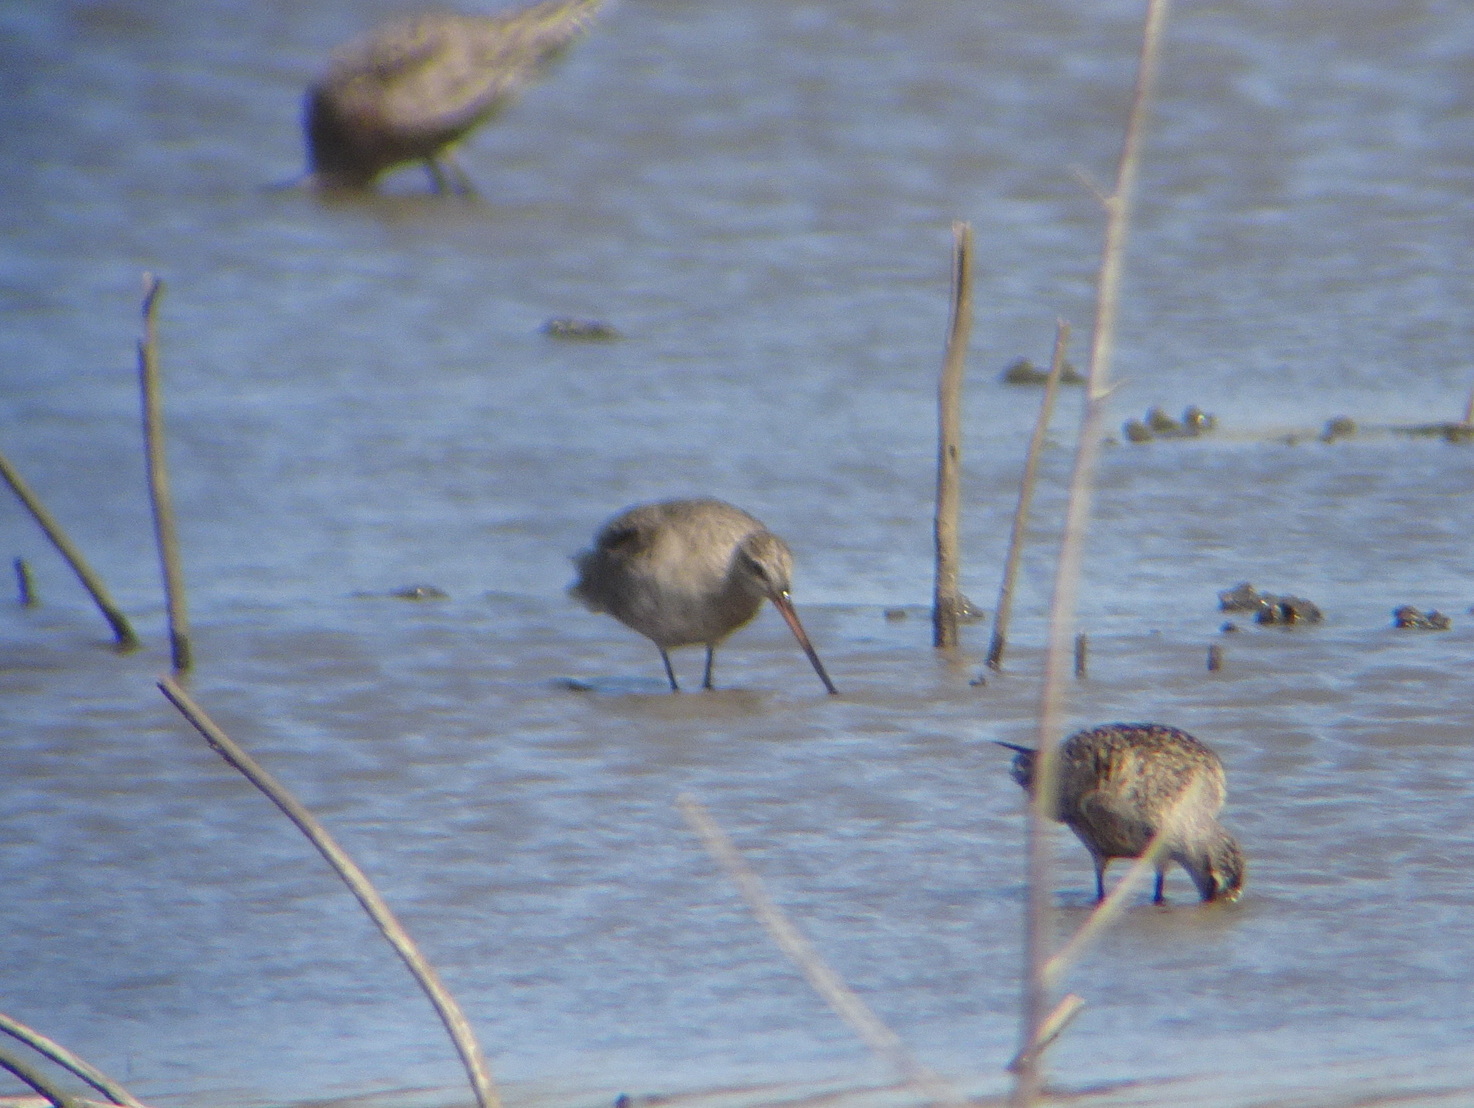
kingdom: Animalia
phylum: Chordata
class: Aves
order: Charadriiformes
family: Scolopacidae
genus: Limosa
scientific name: Limosa haemastica
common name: Hudsonian godwit
